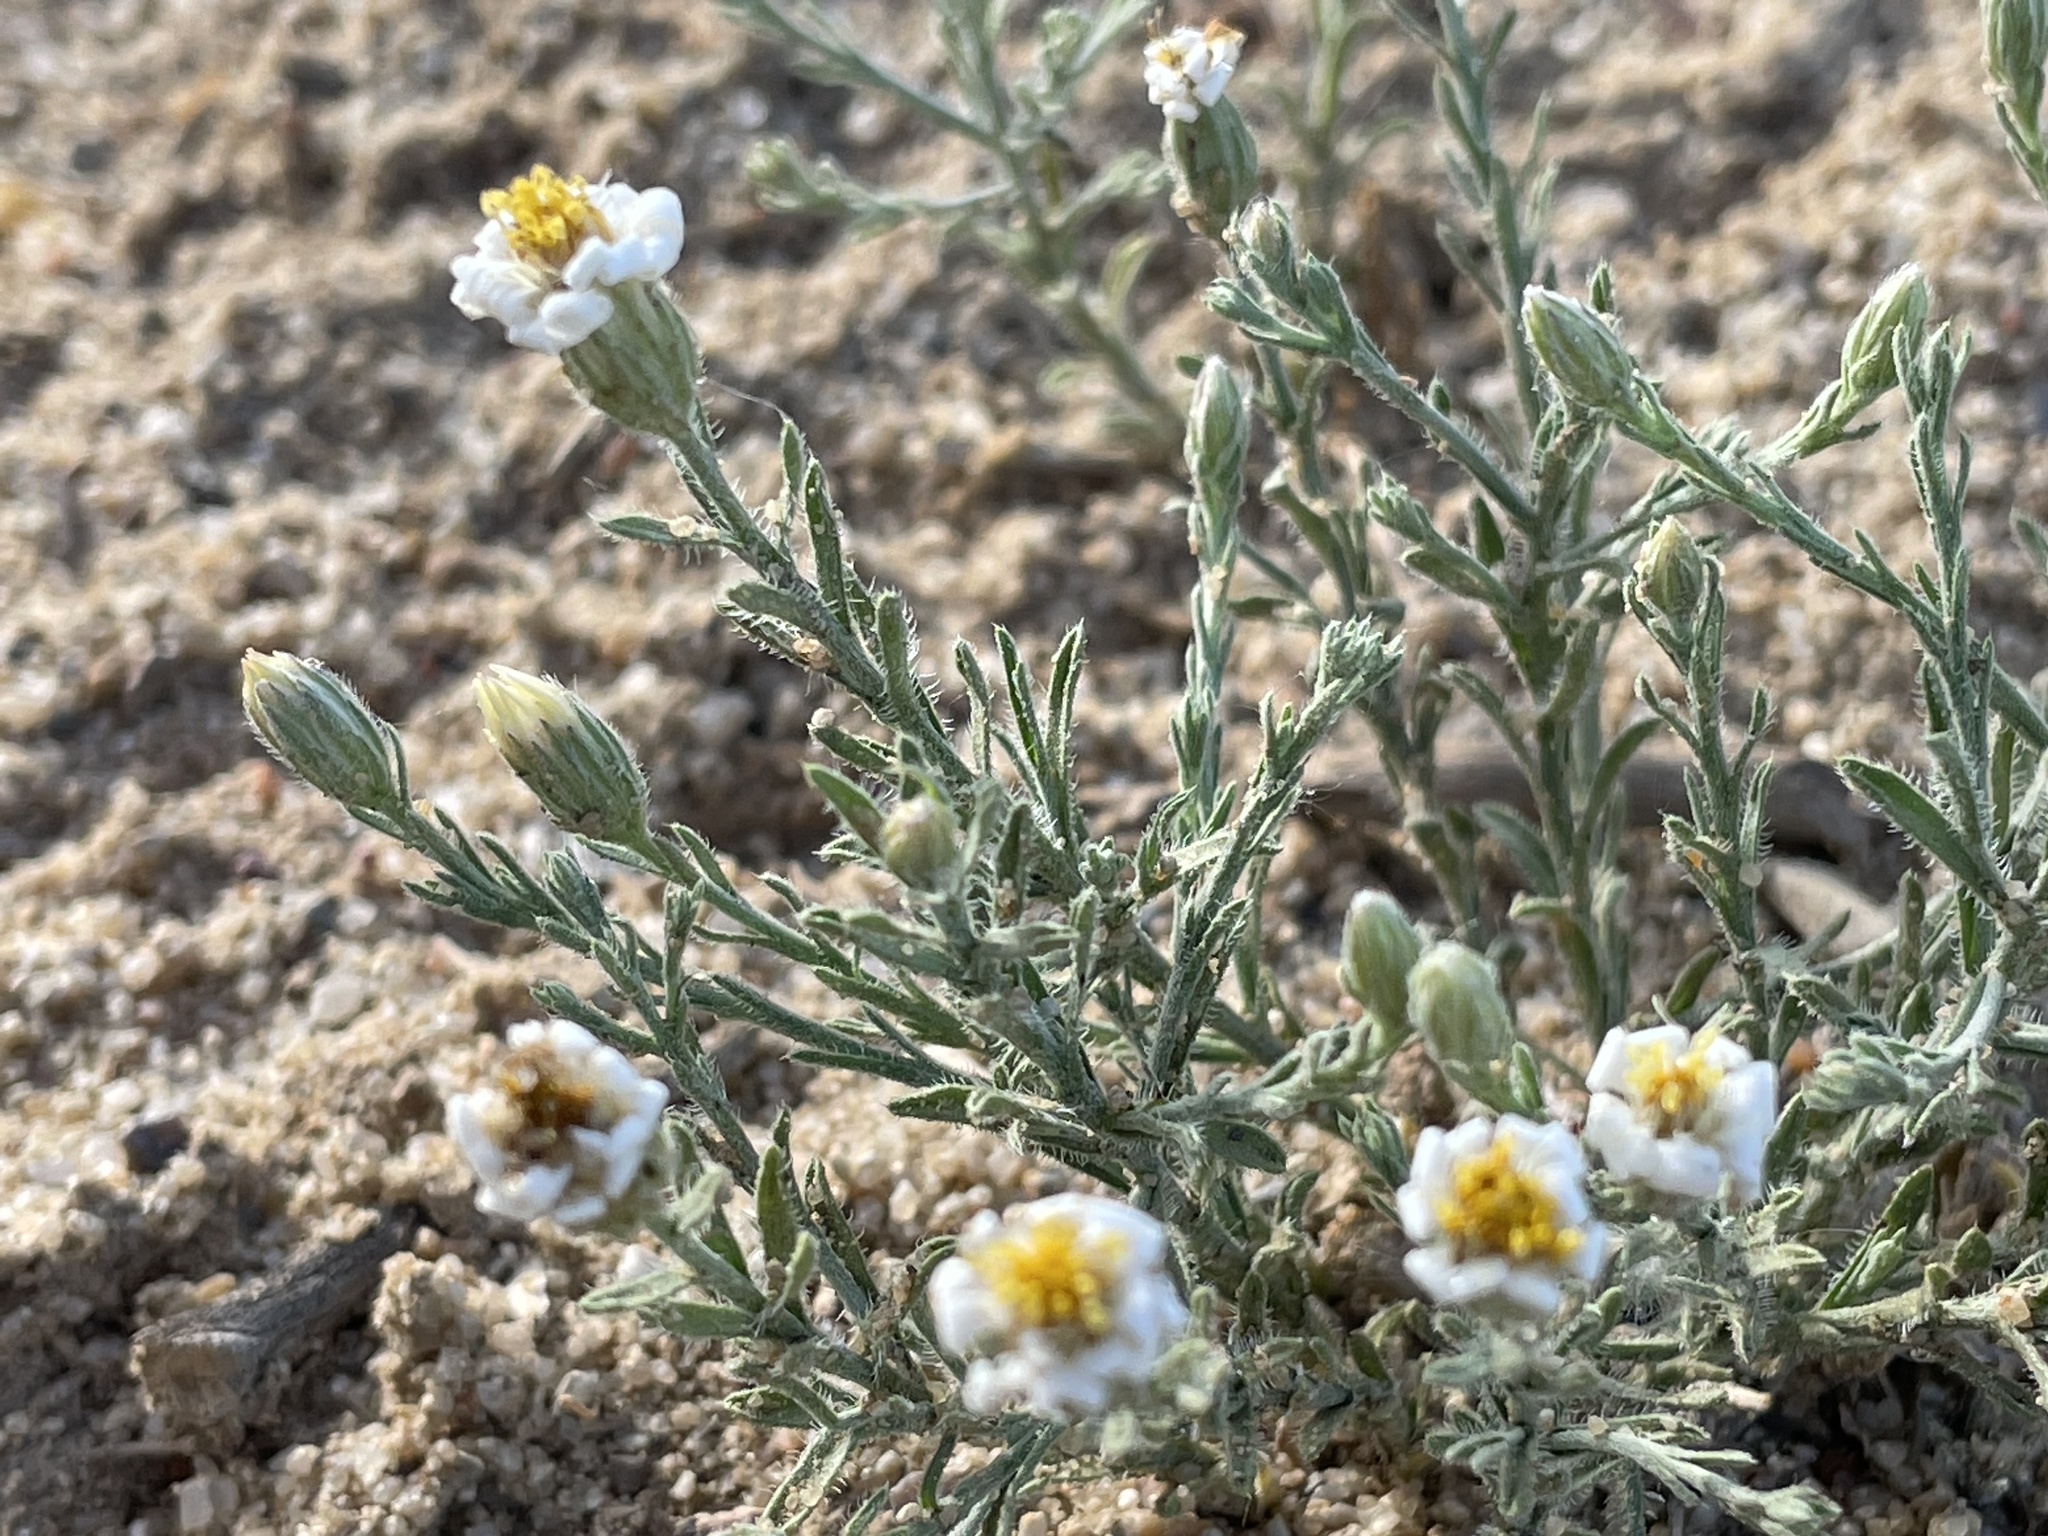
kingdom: Plantae
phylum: Tracheophyta
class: Magnoliopsida
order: Asterales
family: Asteraceae
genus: Chaetopappa
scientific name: Chaetopappa ericoides
